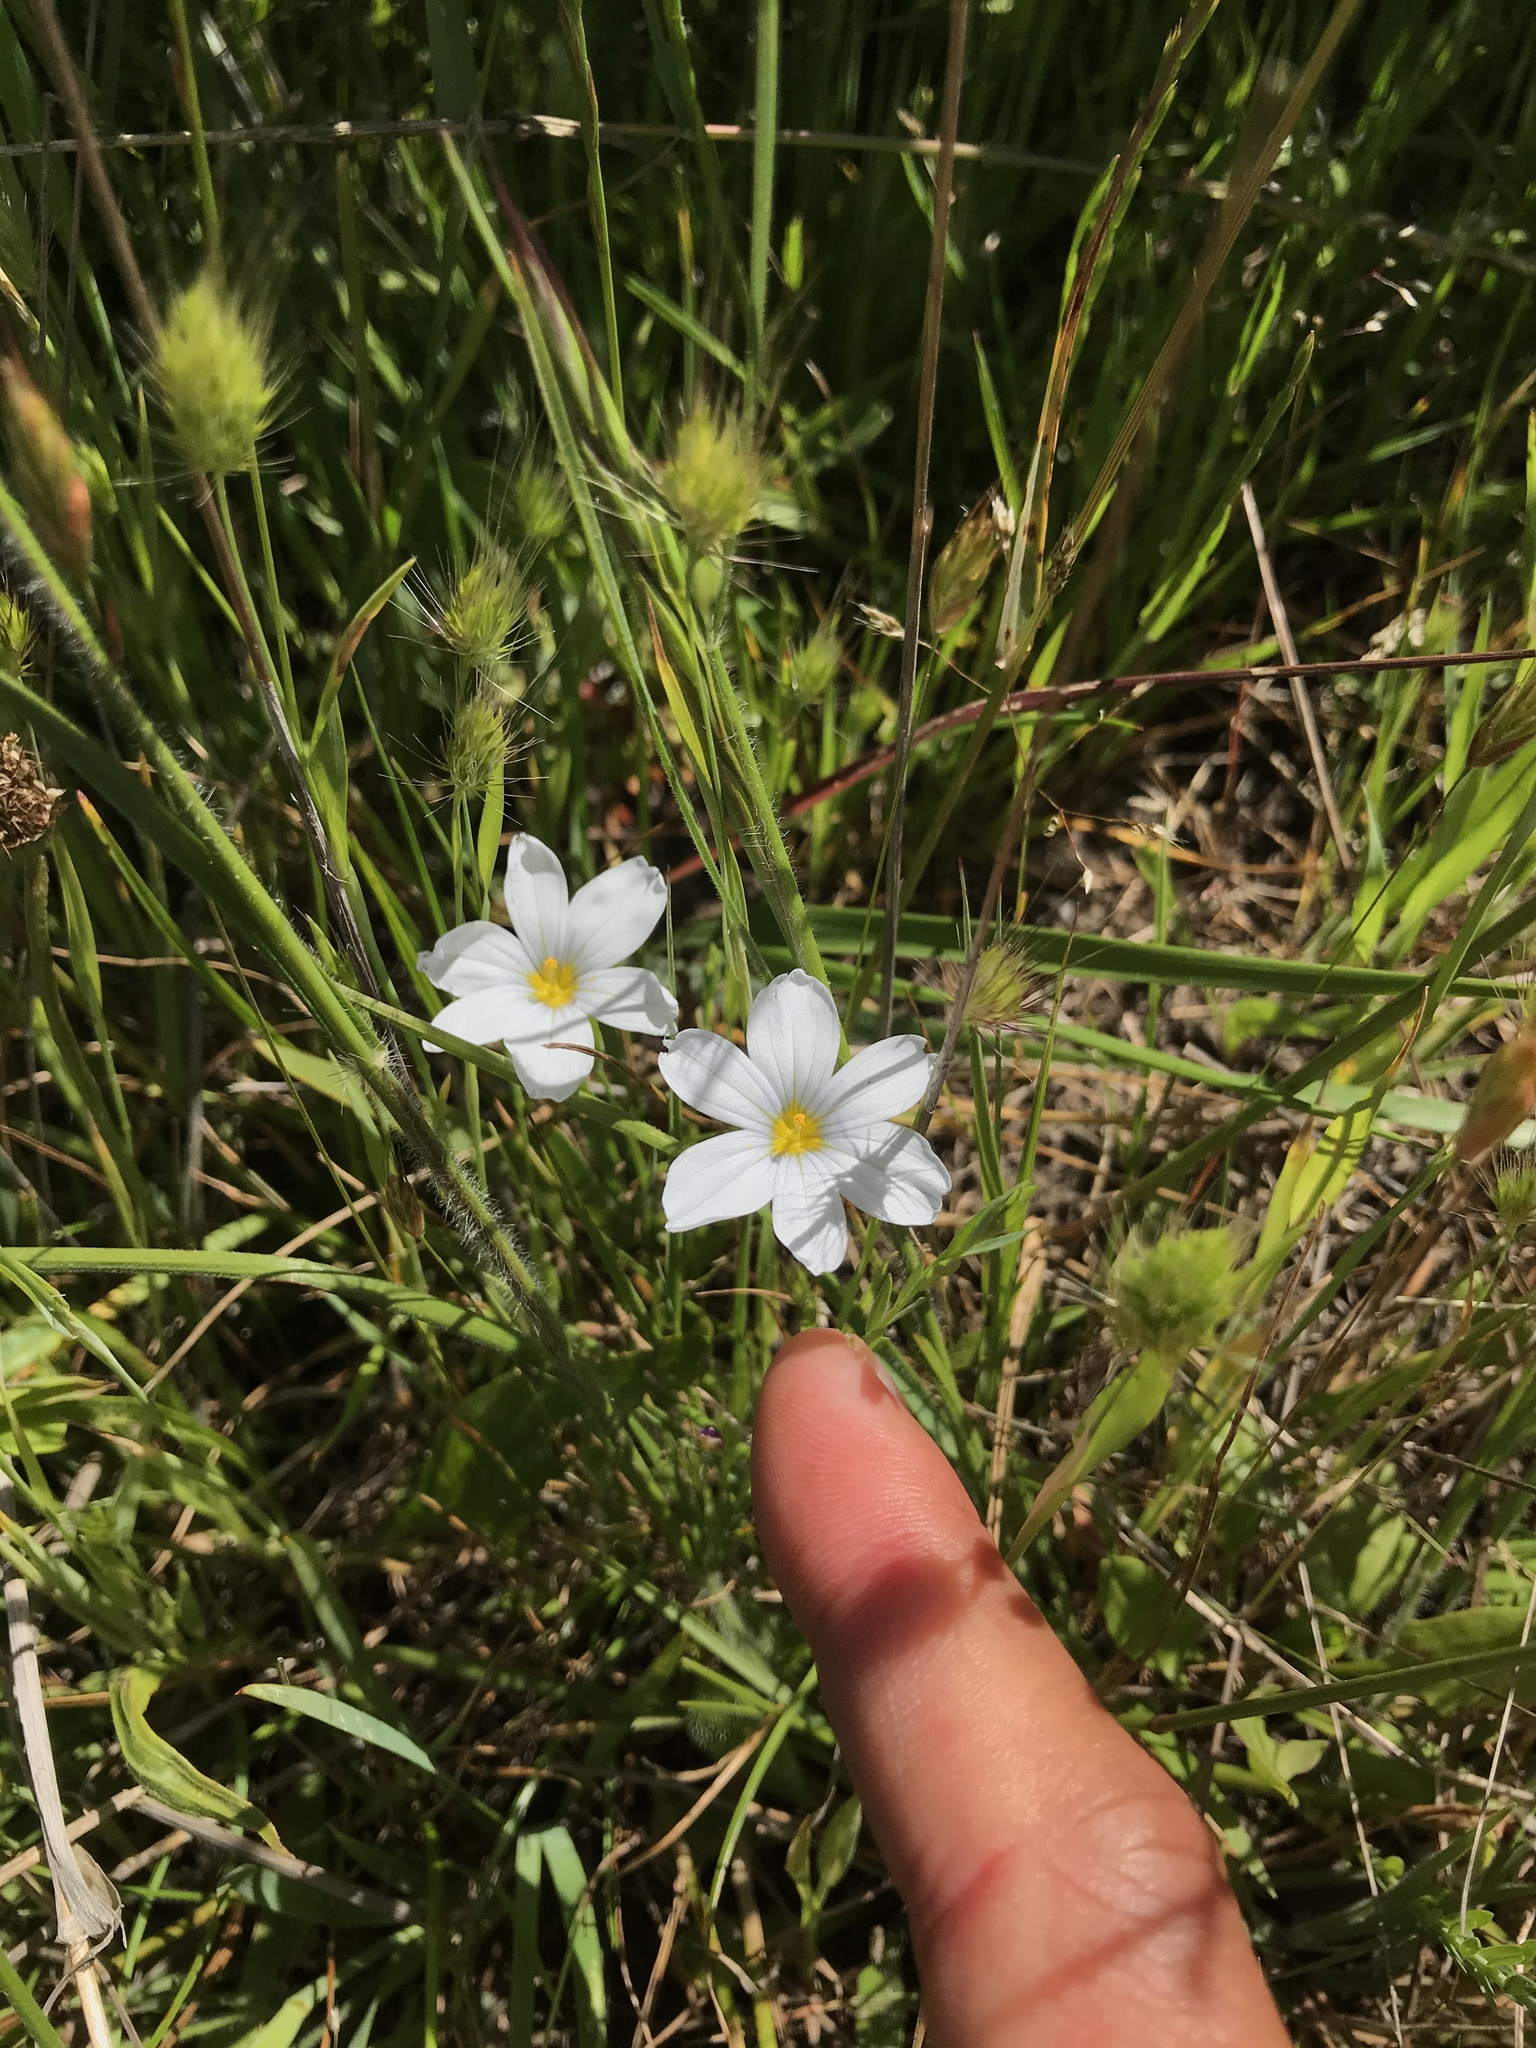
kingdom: Plantae
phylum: Tracheophyta
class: Liliopsida
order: Asparagales
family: Iridaceae
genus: Sisyrinchium
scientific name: Sisyrinchium bellum
